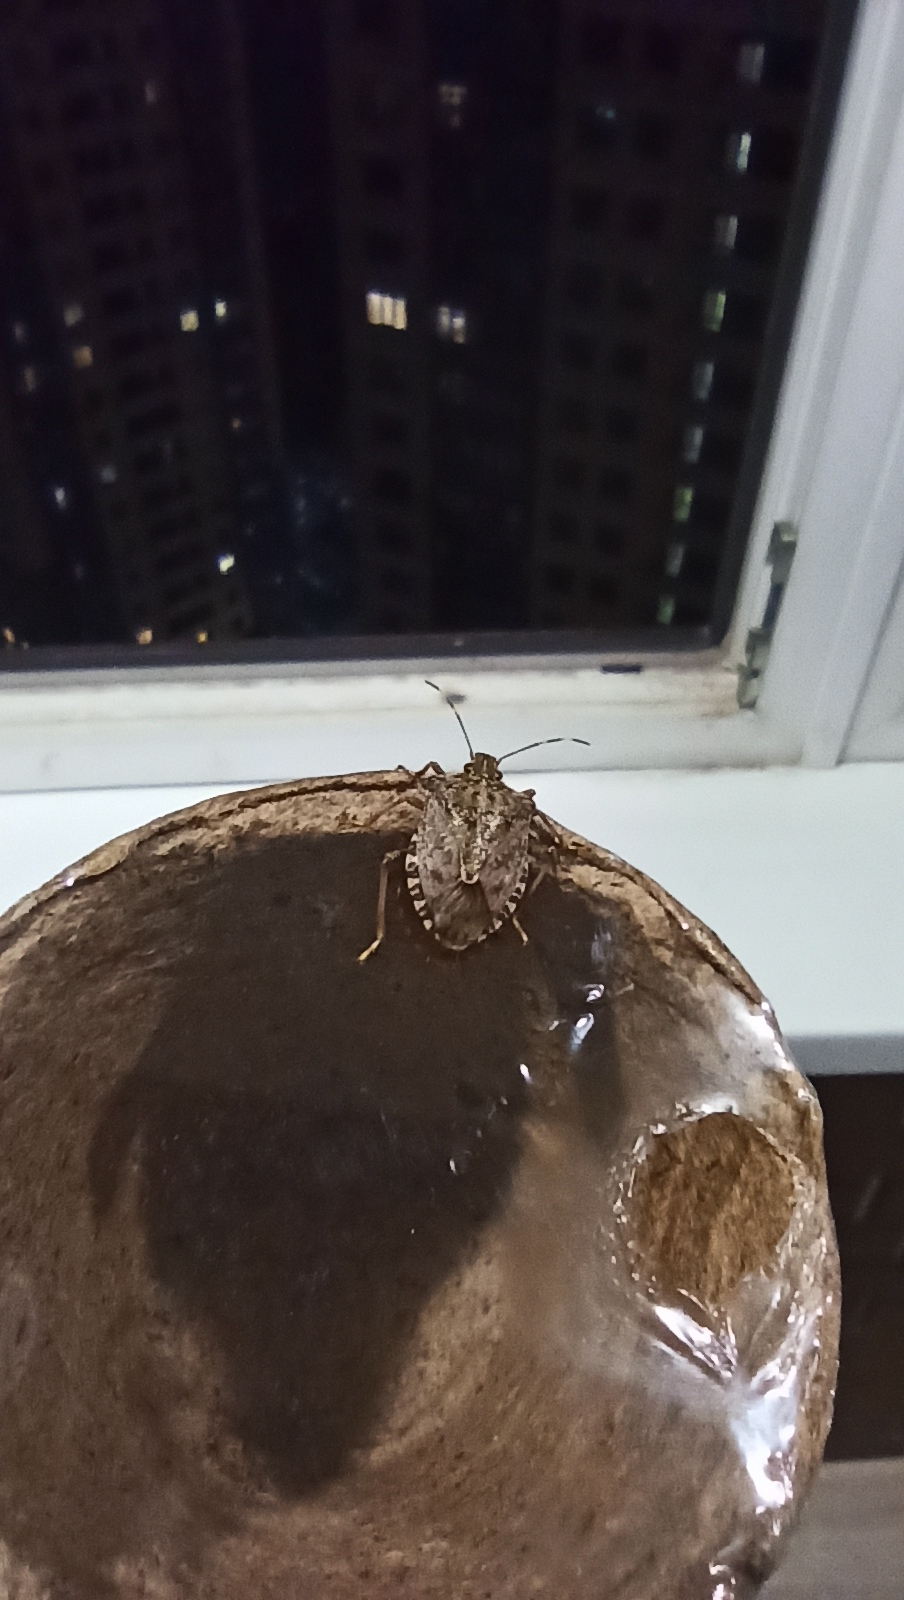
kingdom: Animalia
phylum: Arthropoda
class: Insecta
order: Hemiptera
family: Pentatomidae
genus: Halyomorpha
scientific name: Halyomorpha halys
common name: Brown marmorated stink bug
